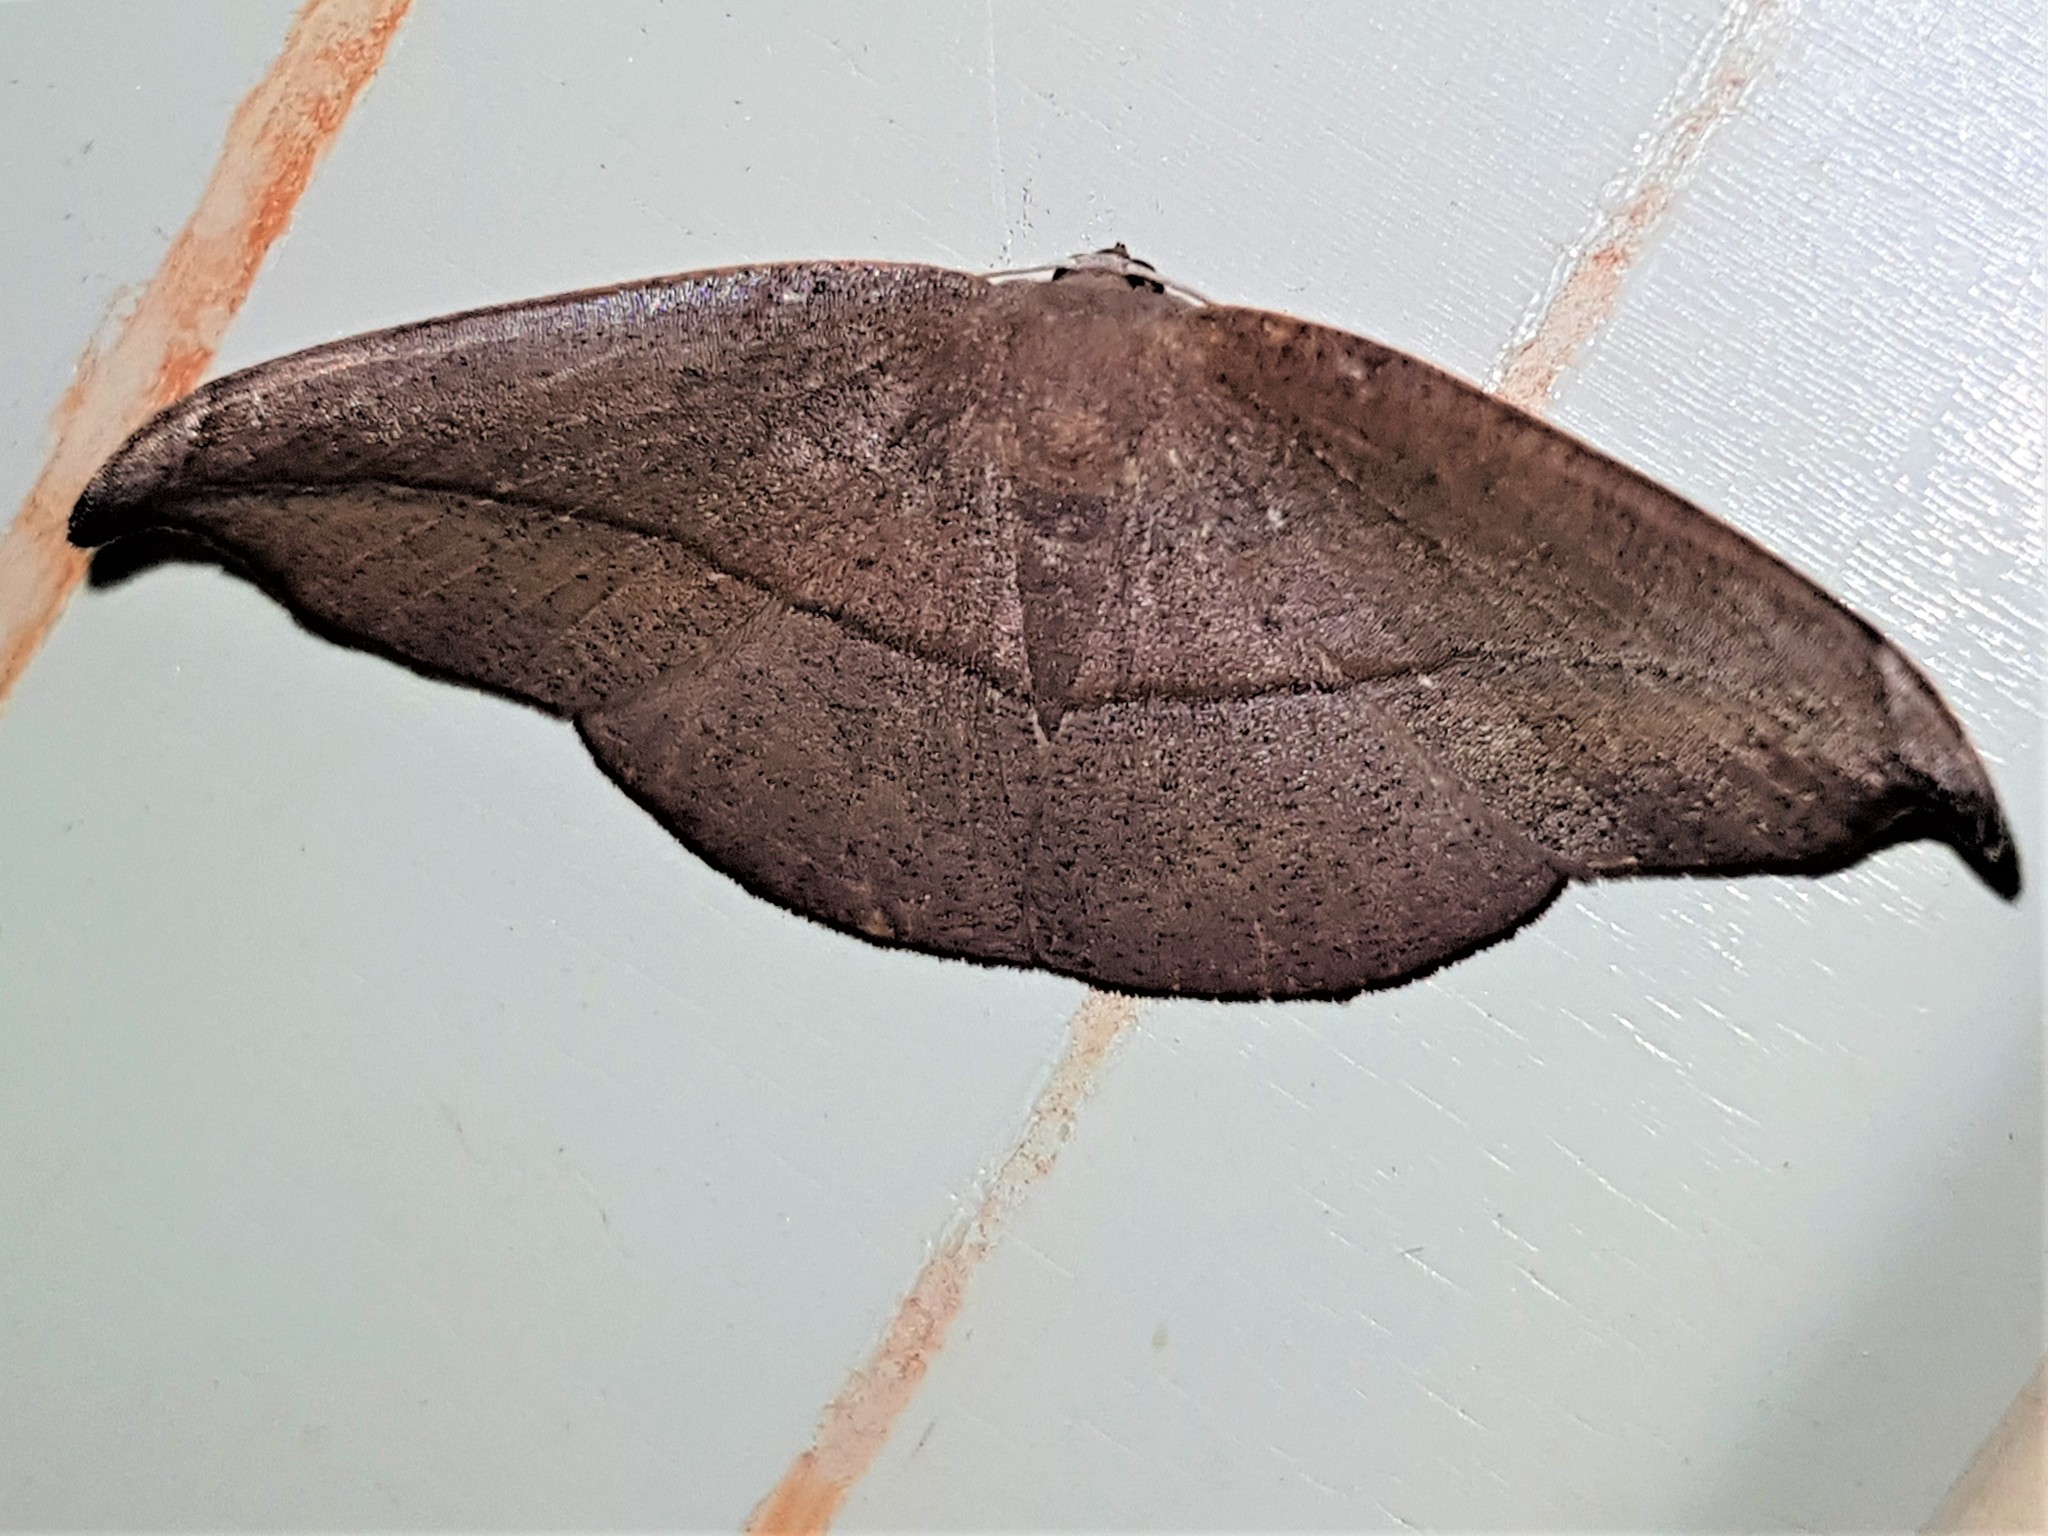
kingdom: Animalia
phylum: Arthropoda
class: Insecta
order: Lepidoptera
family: Geometridae
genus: Patalene
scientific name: Patalene aenetusaria
